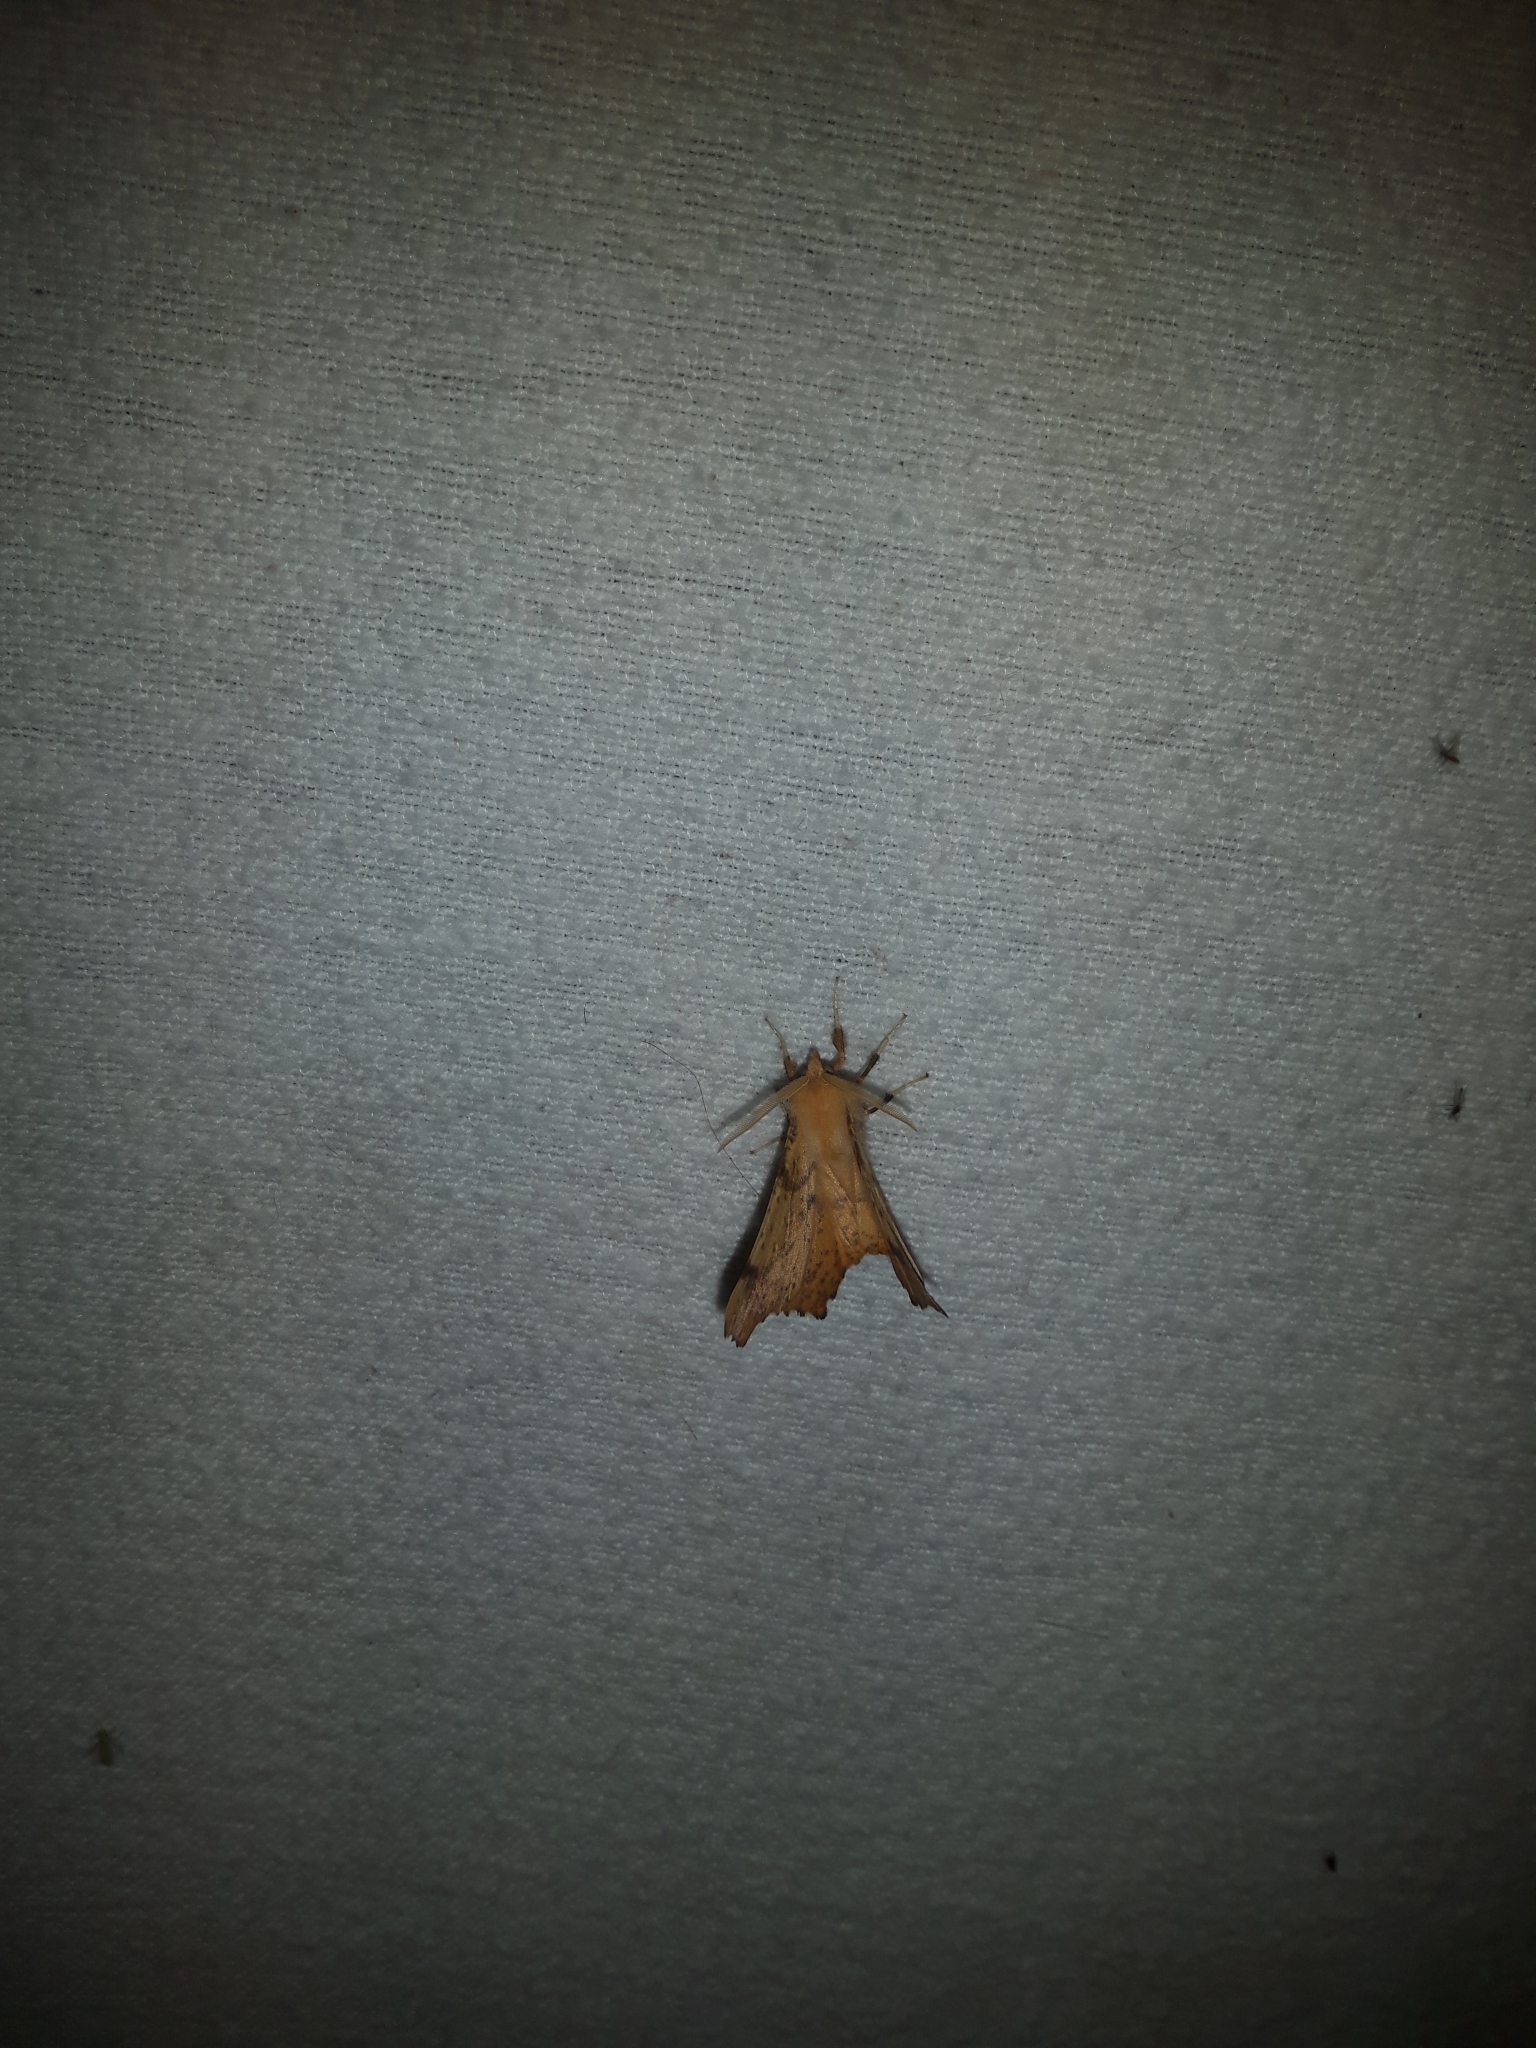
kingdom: Animalia
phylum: Arthropoda
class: Insecta
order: Lepidoptera
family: Geometridae
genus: Ennomos
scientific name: Ennomos magnaria
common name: Maple spanworm
